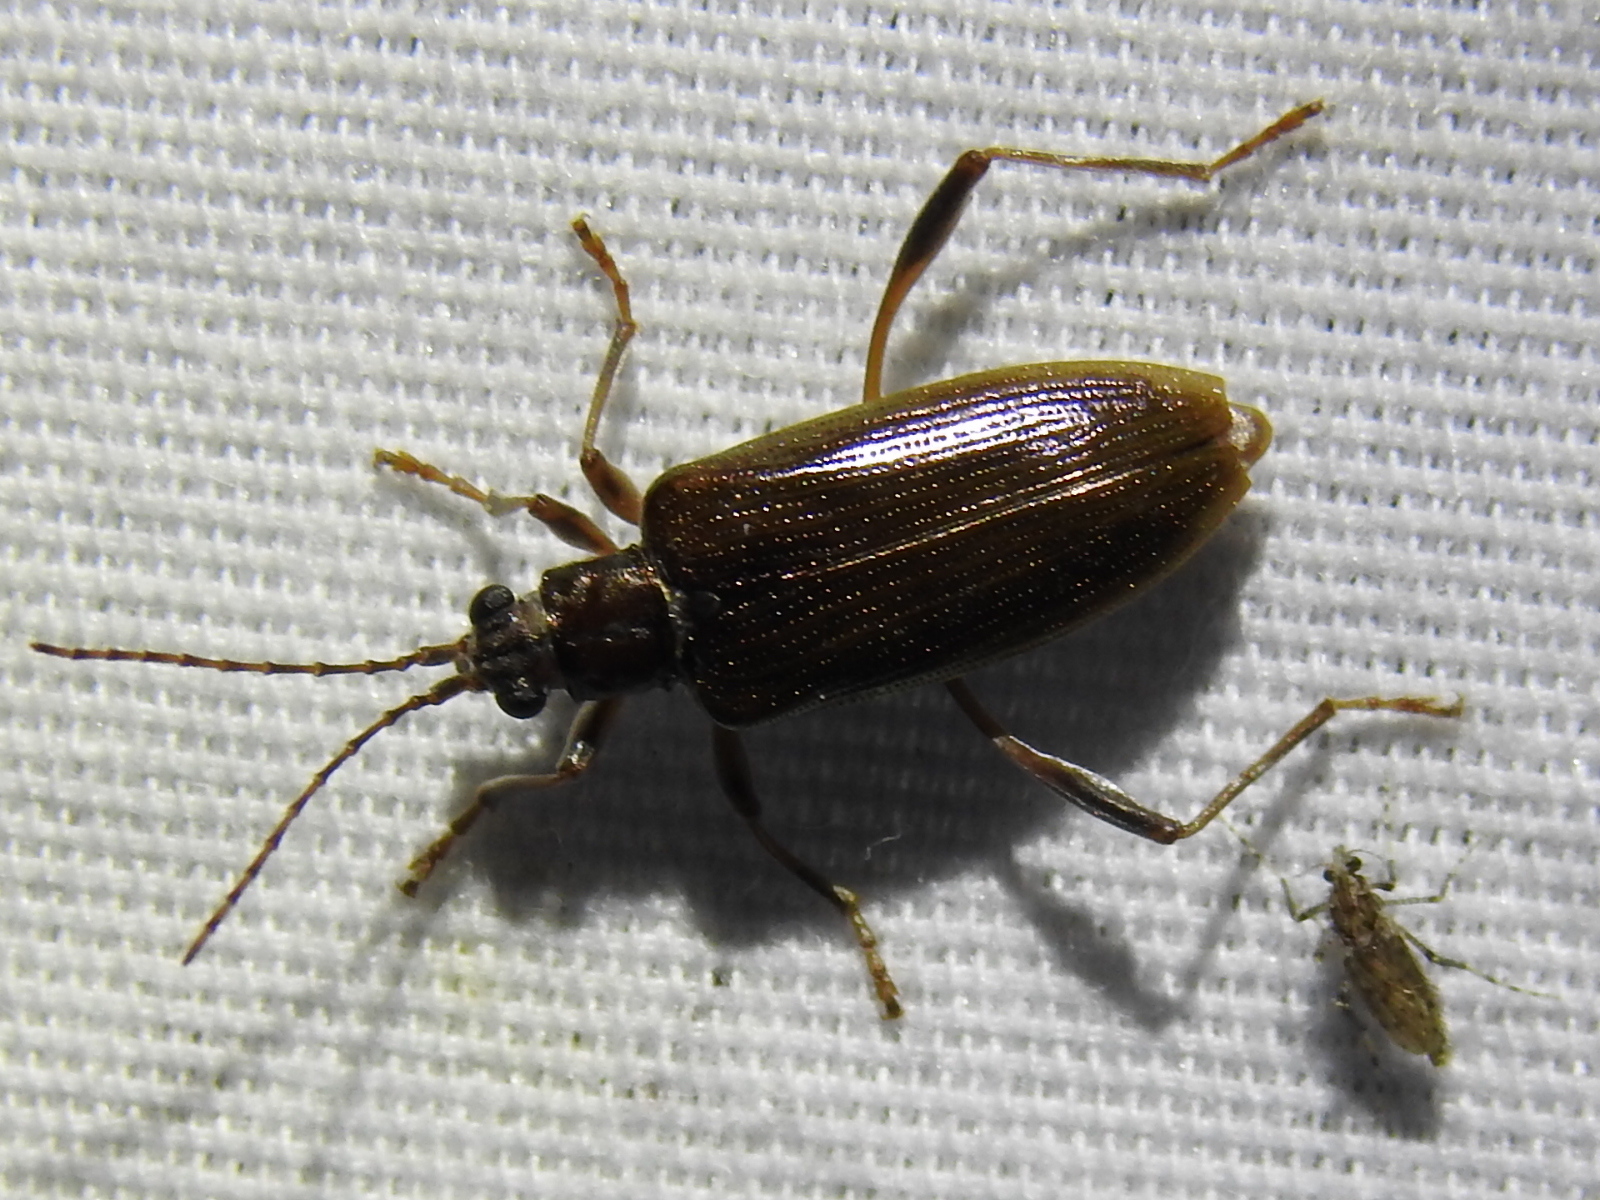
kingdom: Animalia
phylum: Arthropoda
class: Insecta
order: Coleoptera
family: Chrysomelidae
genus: Donacia
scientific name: Donacia hypoleuca
